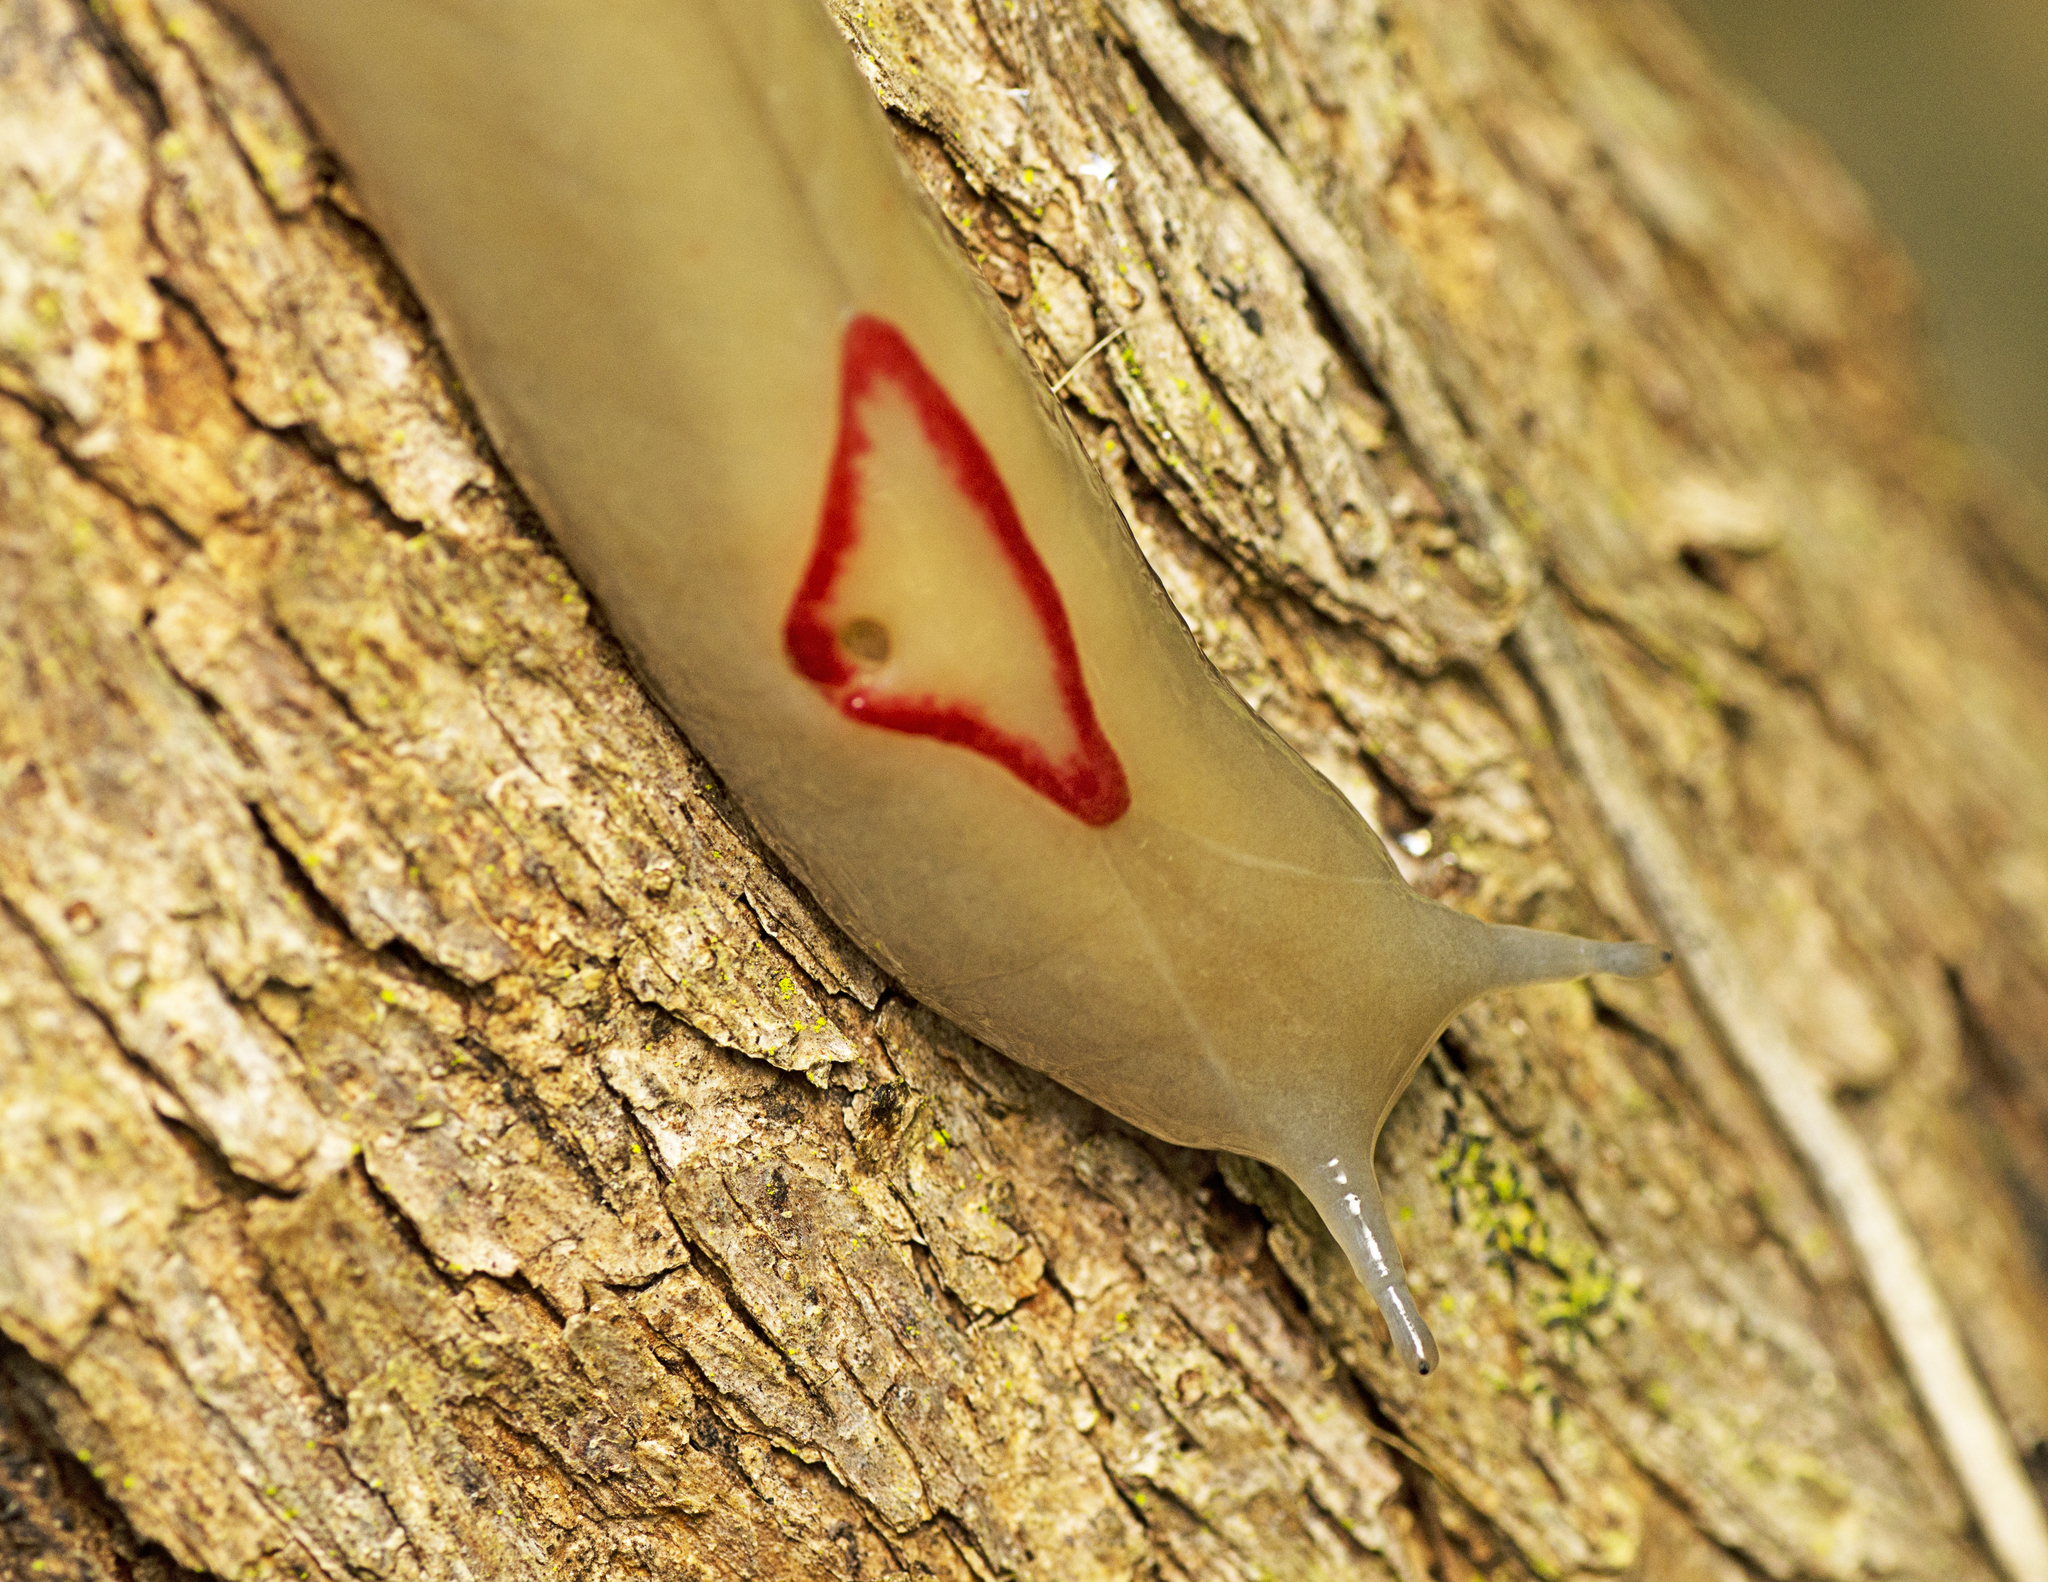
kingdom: Animalia
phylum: Mollusca
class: Gastropoda
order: Stylommatophora
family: Athoracophoridae
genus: Triboniophorus
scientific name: Triboniophorus graeffei
